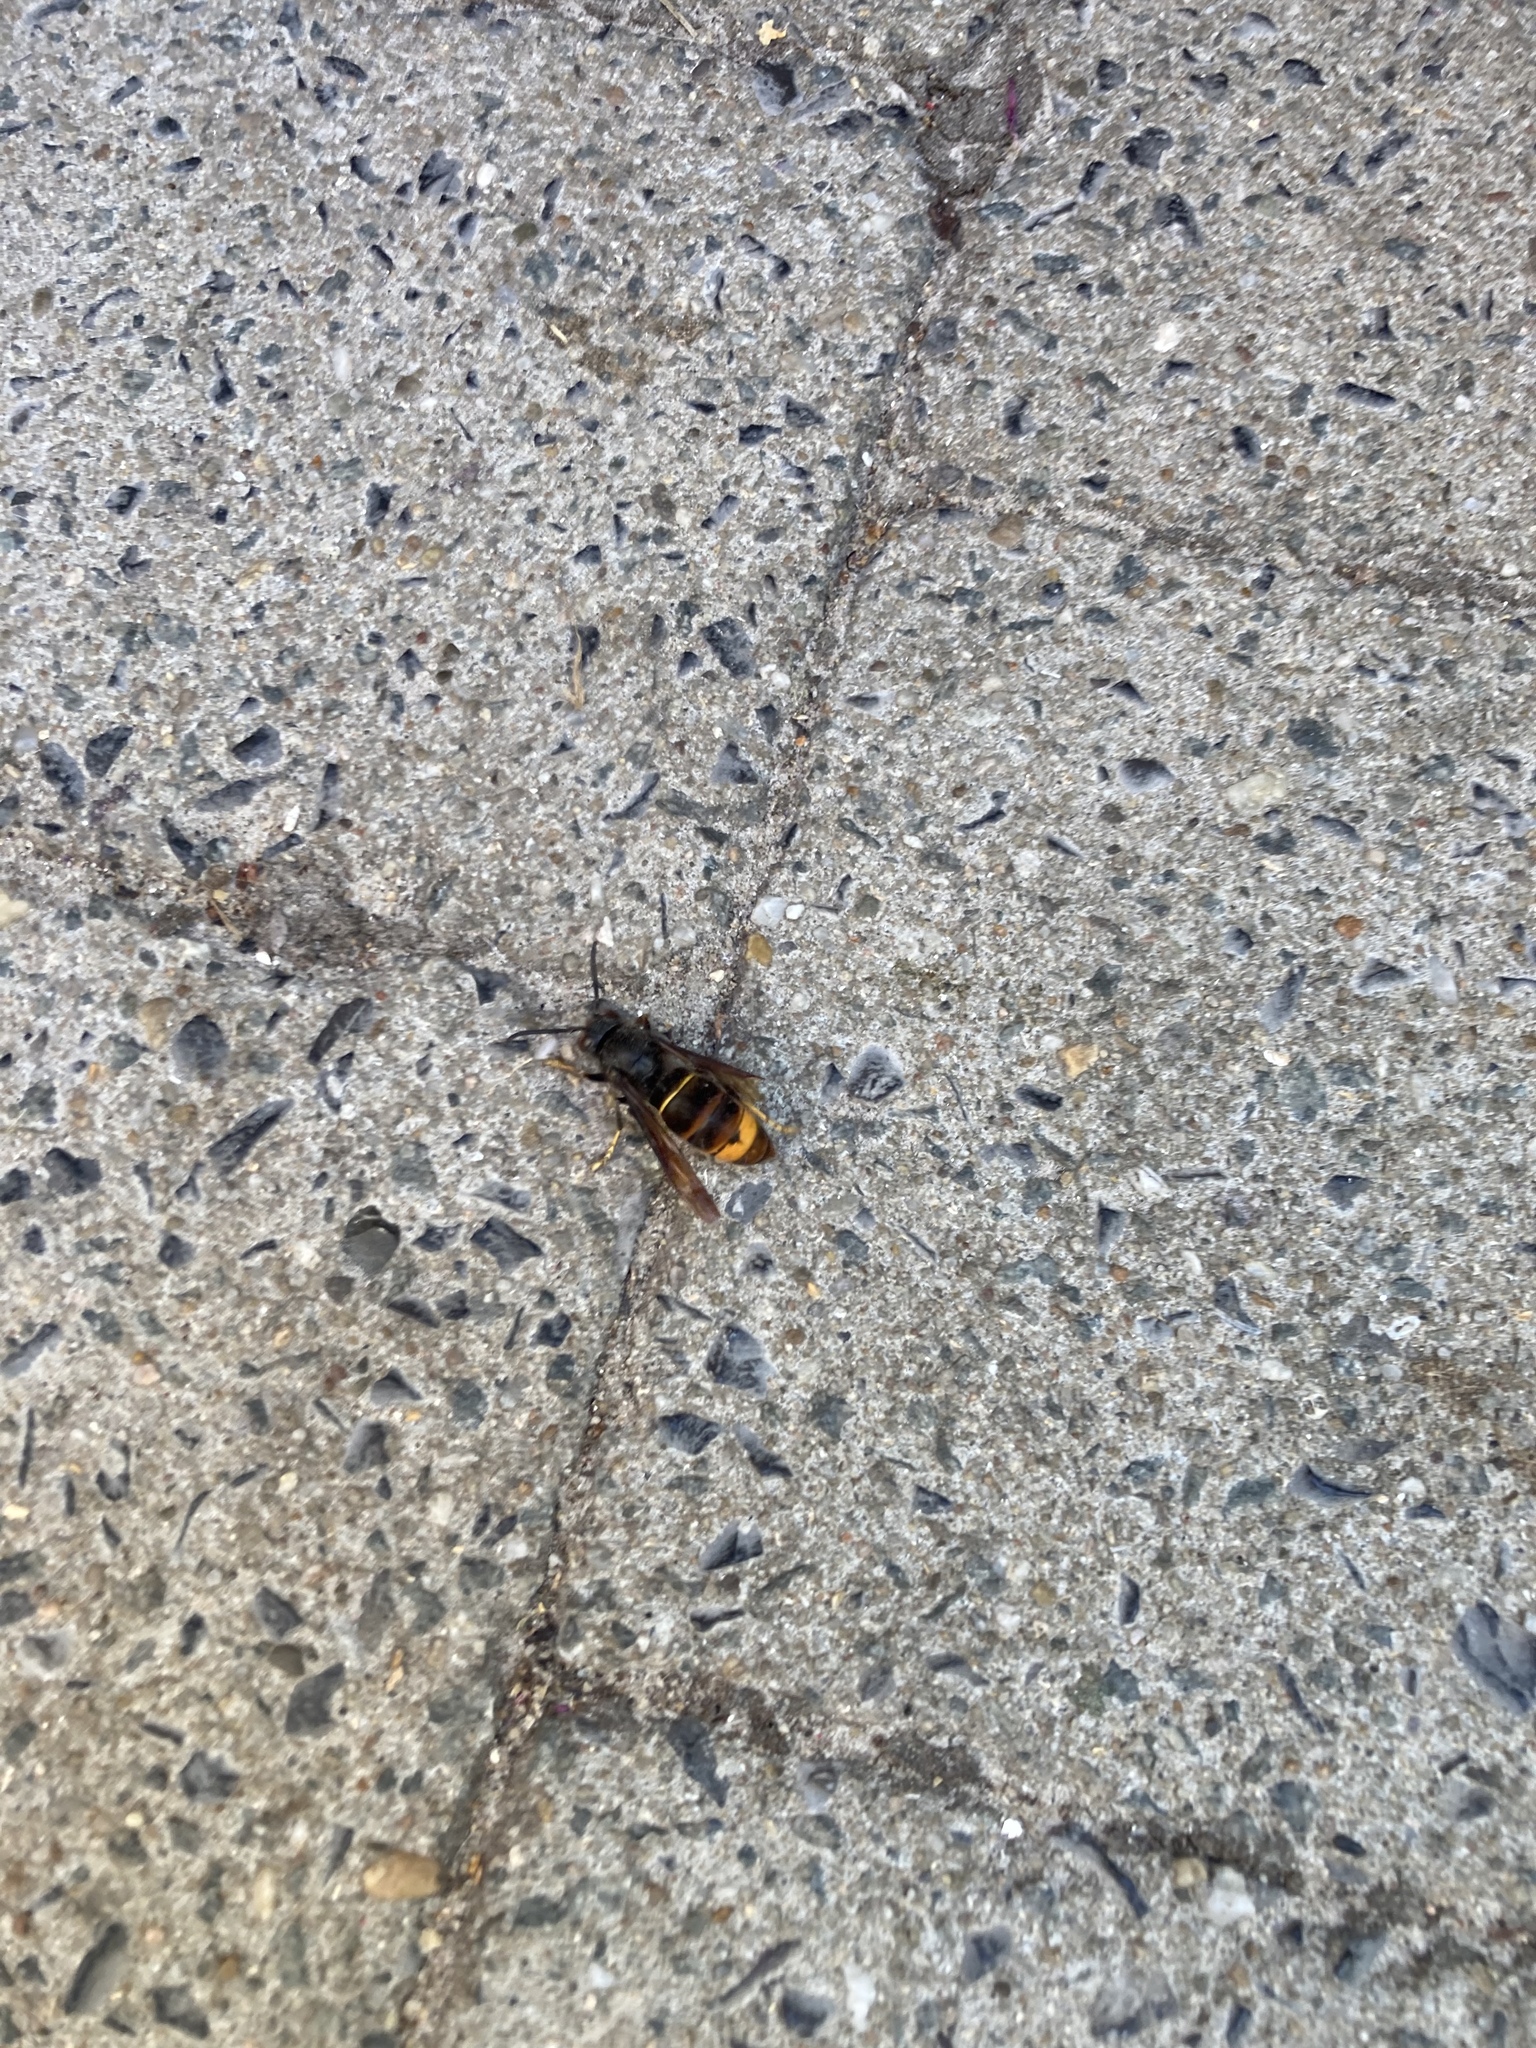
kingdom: Animalia
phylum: Arthropoda
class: Insecta
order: Hymenoptera
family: Vespidae
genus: Vespa
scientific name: Vespa velutina
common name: Asian hornet
